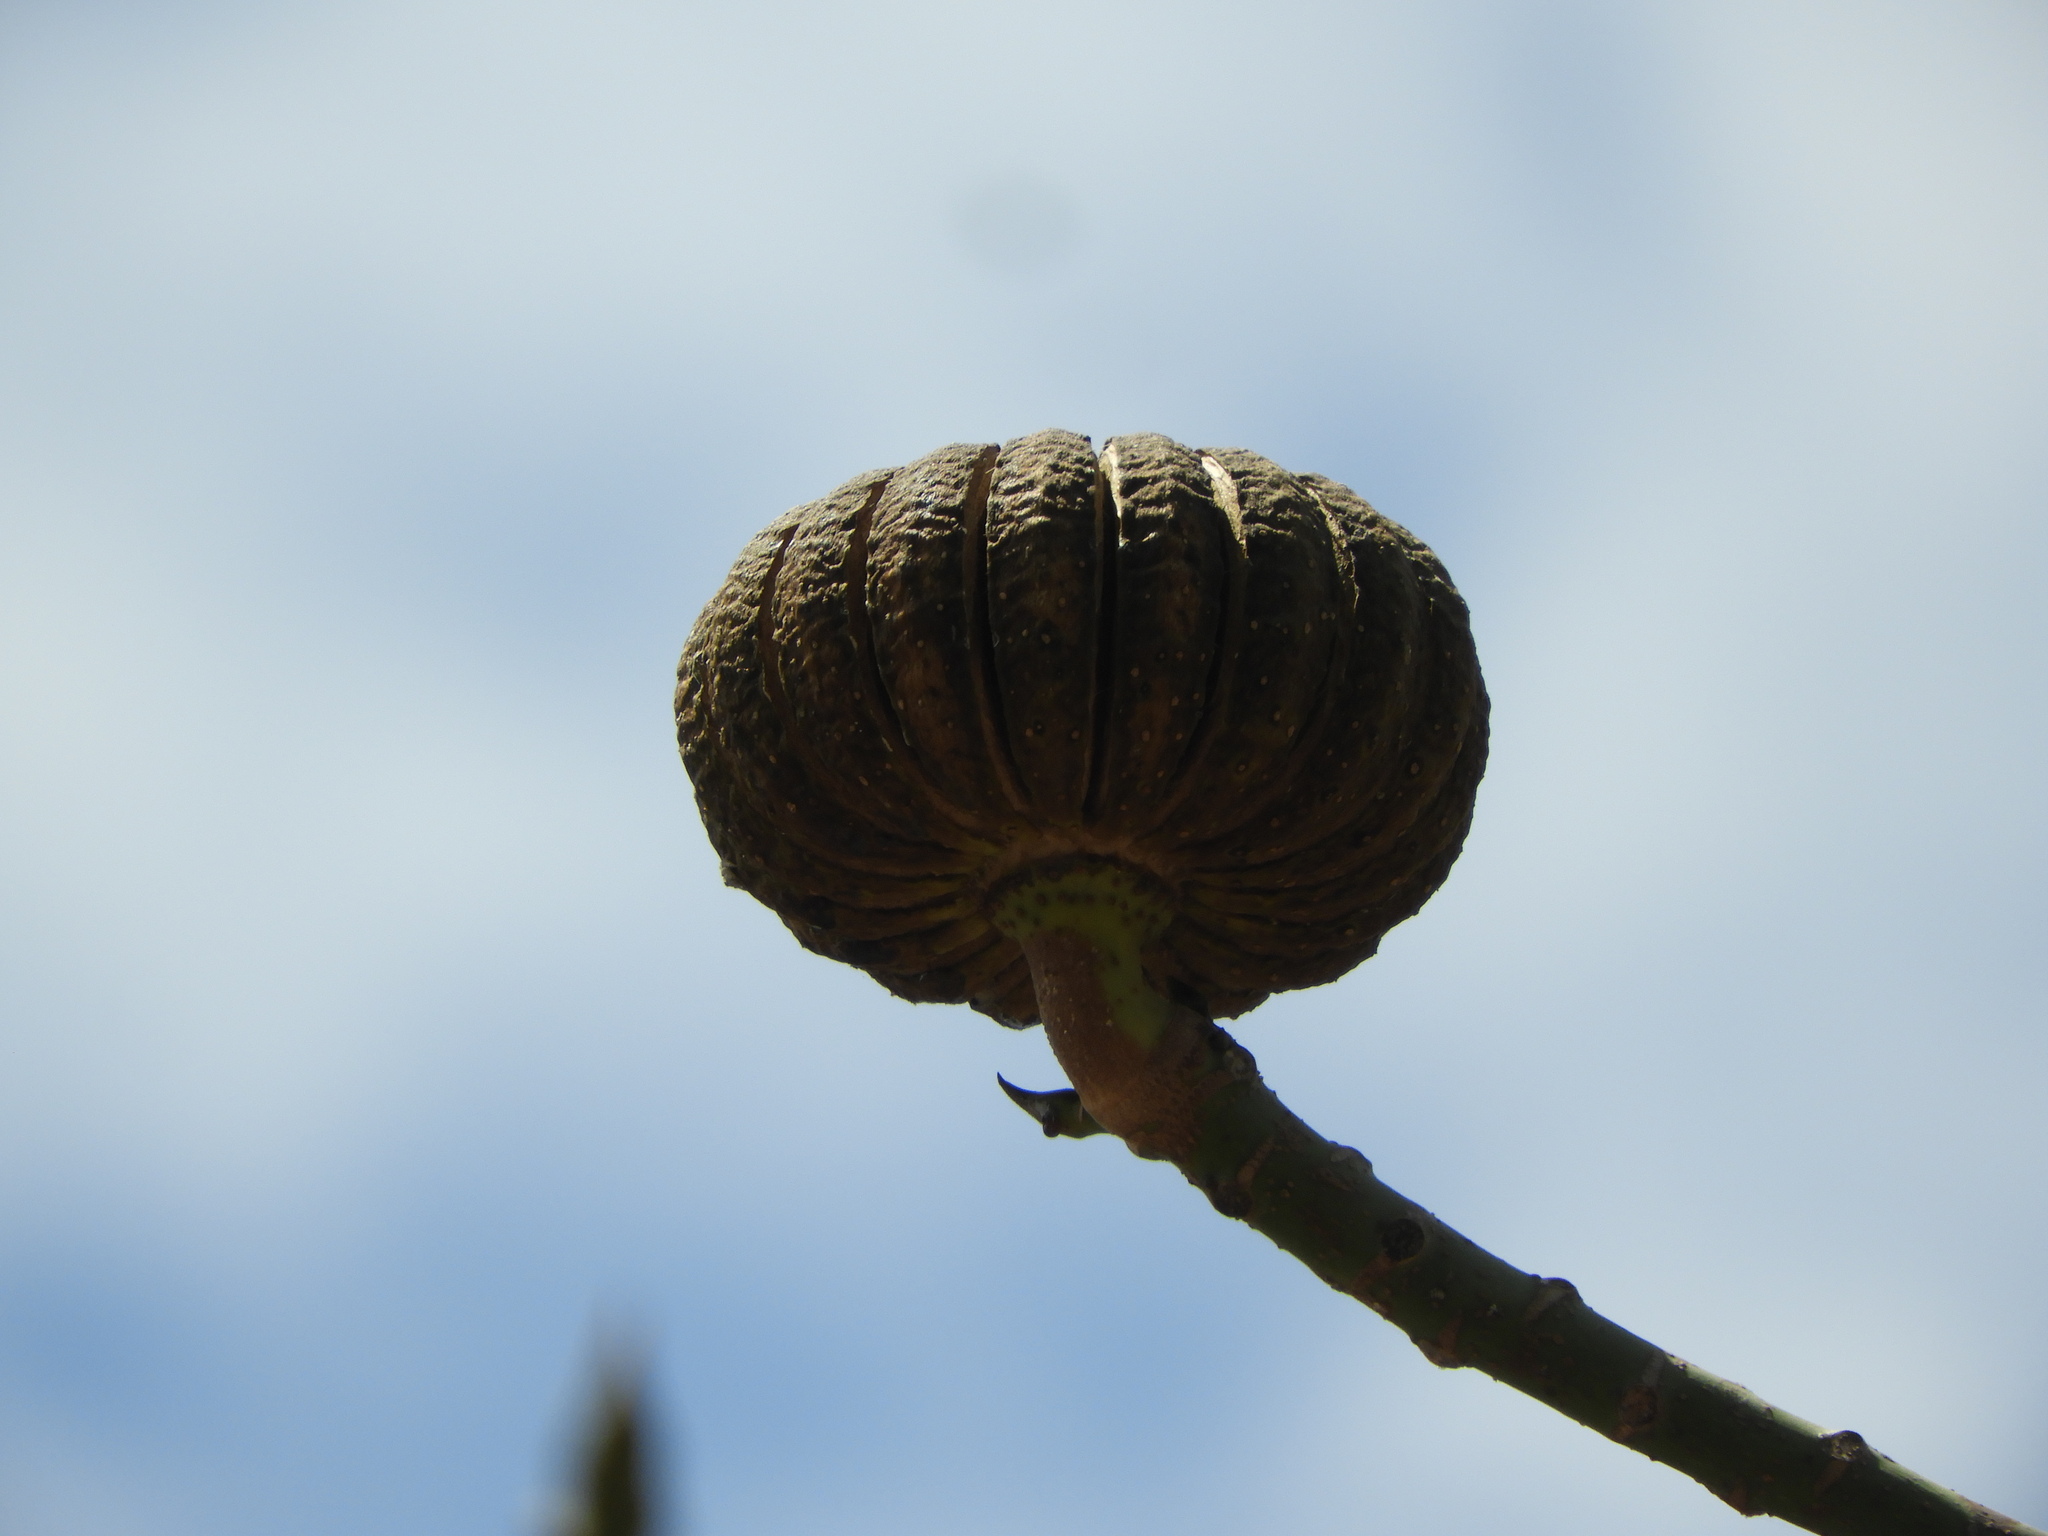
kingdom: Plantae
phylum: Tracheophyta
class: Magnoliopsida
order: Malpighiales
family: Euphorbiaceae
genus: Hura
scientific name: Hura polyandra
